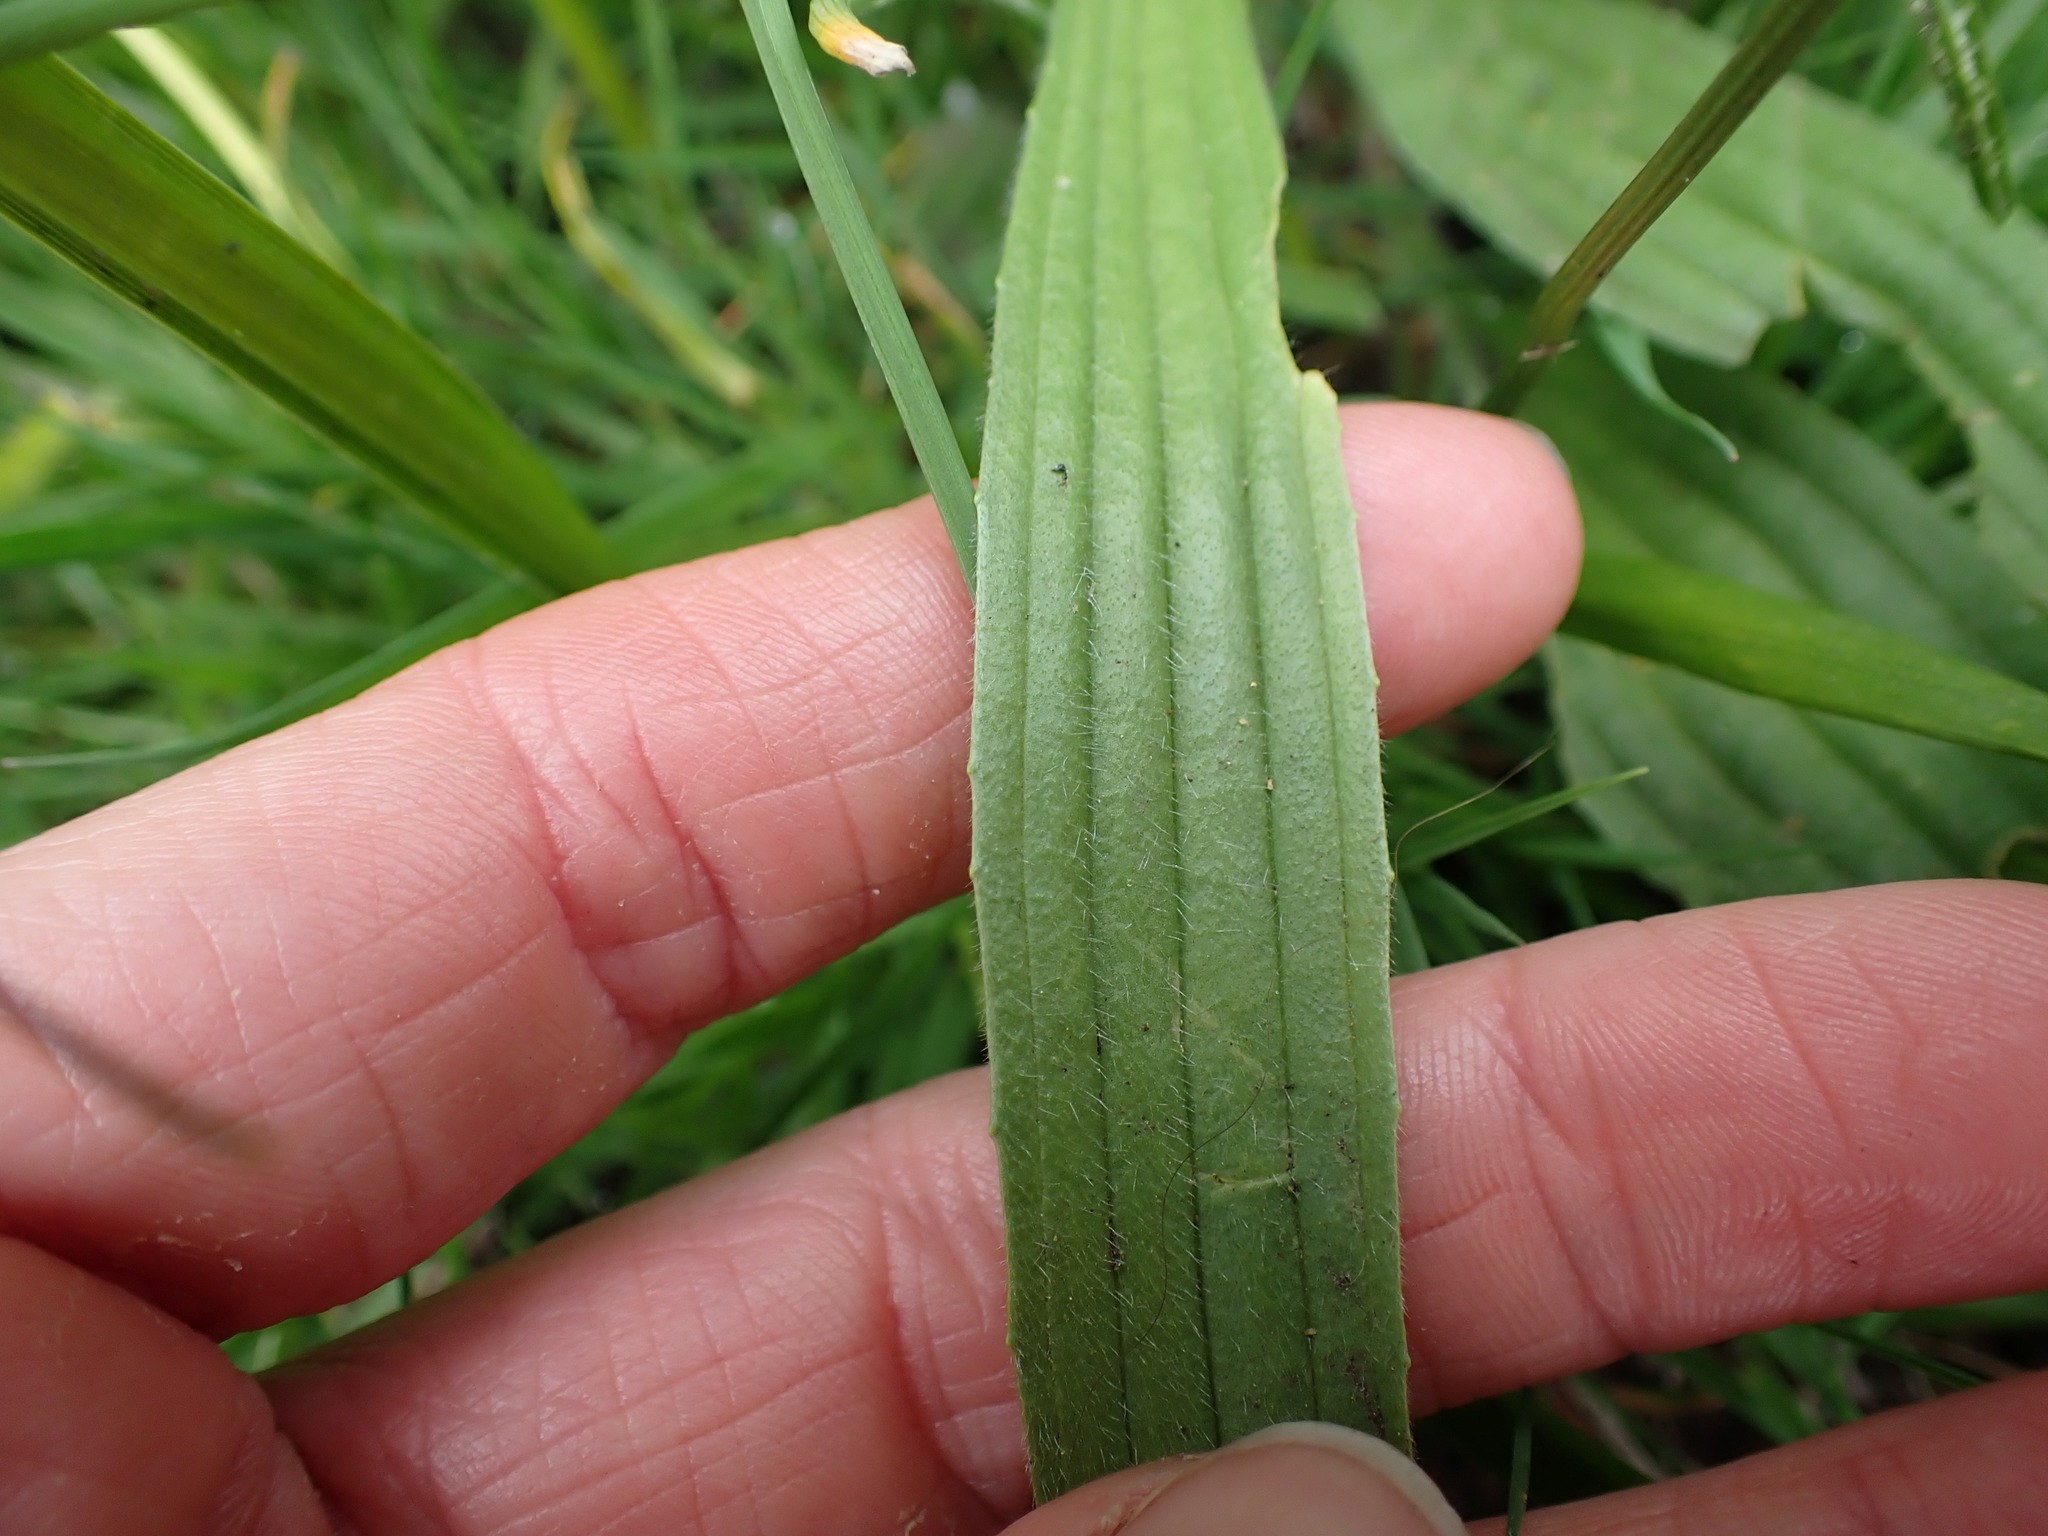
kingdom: Plantae
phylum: Tracheophyta
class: Magnoliopsida
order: Lamiales
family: Plantaginaceae
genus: Plantago
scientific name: Plantago lanceolata
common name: Ribwort plantain
